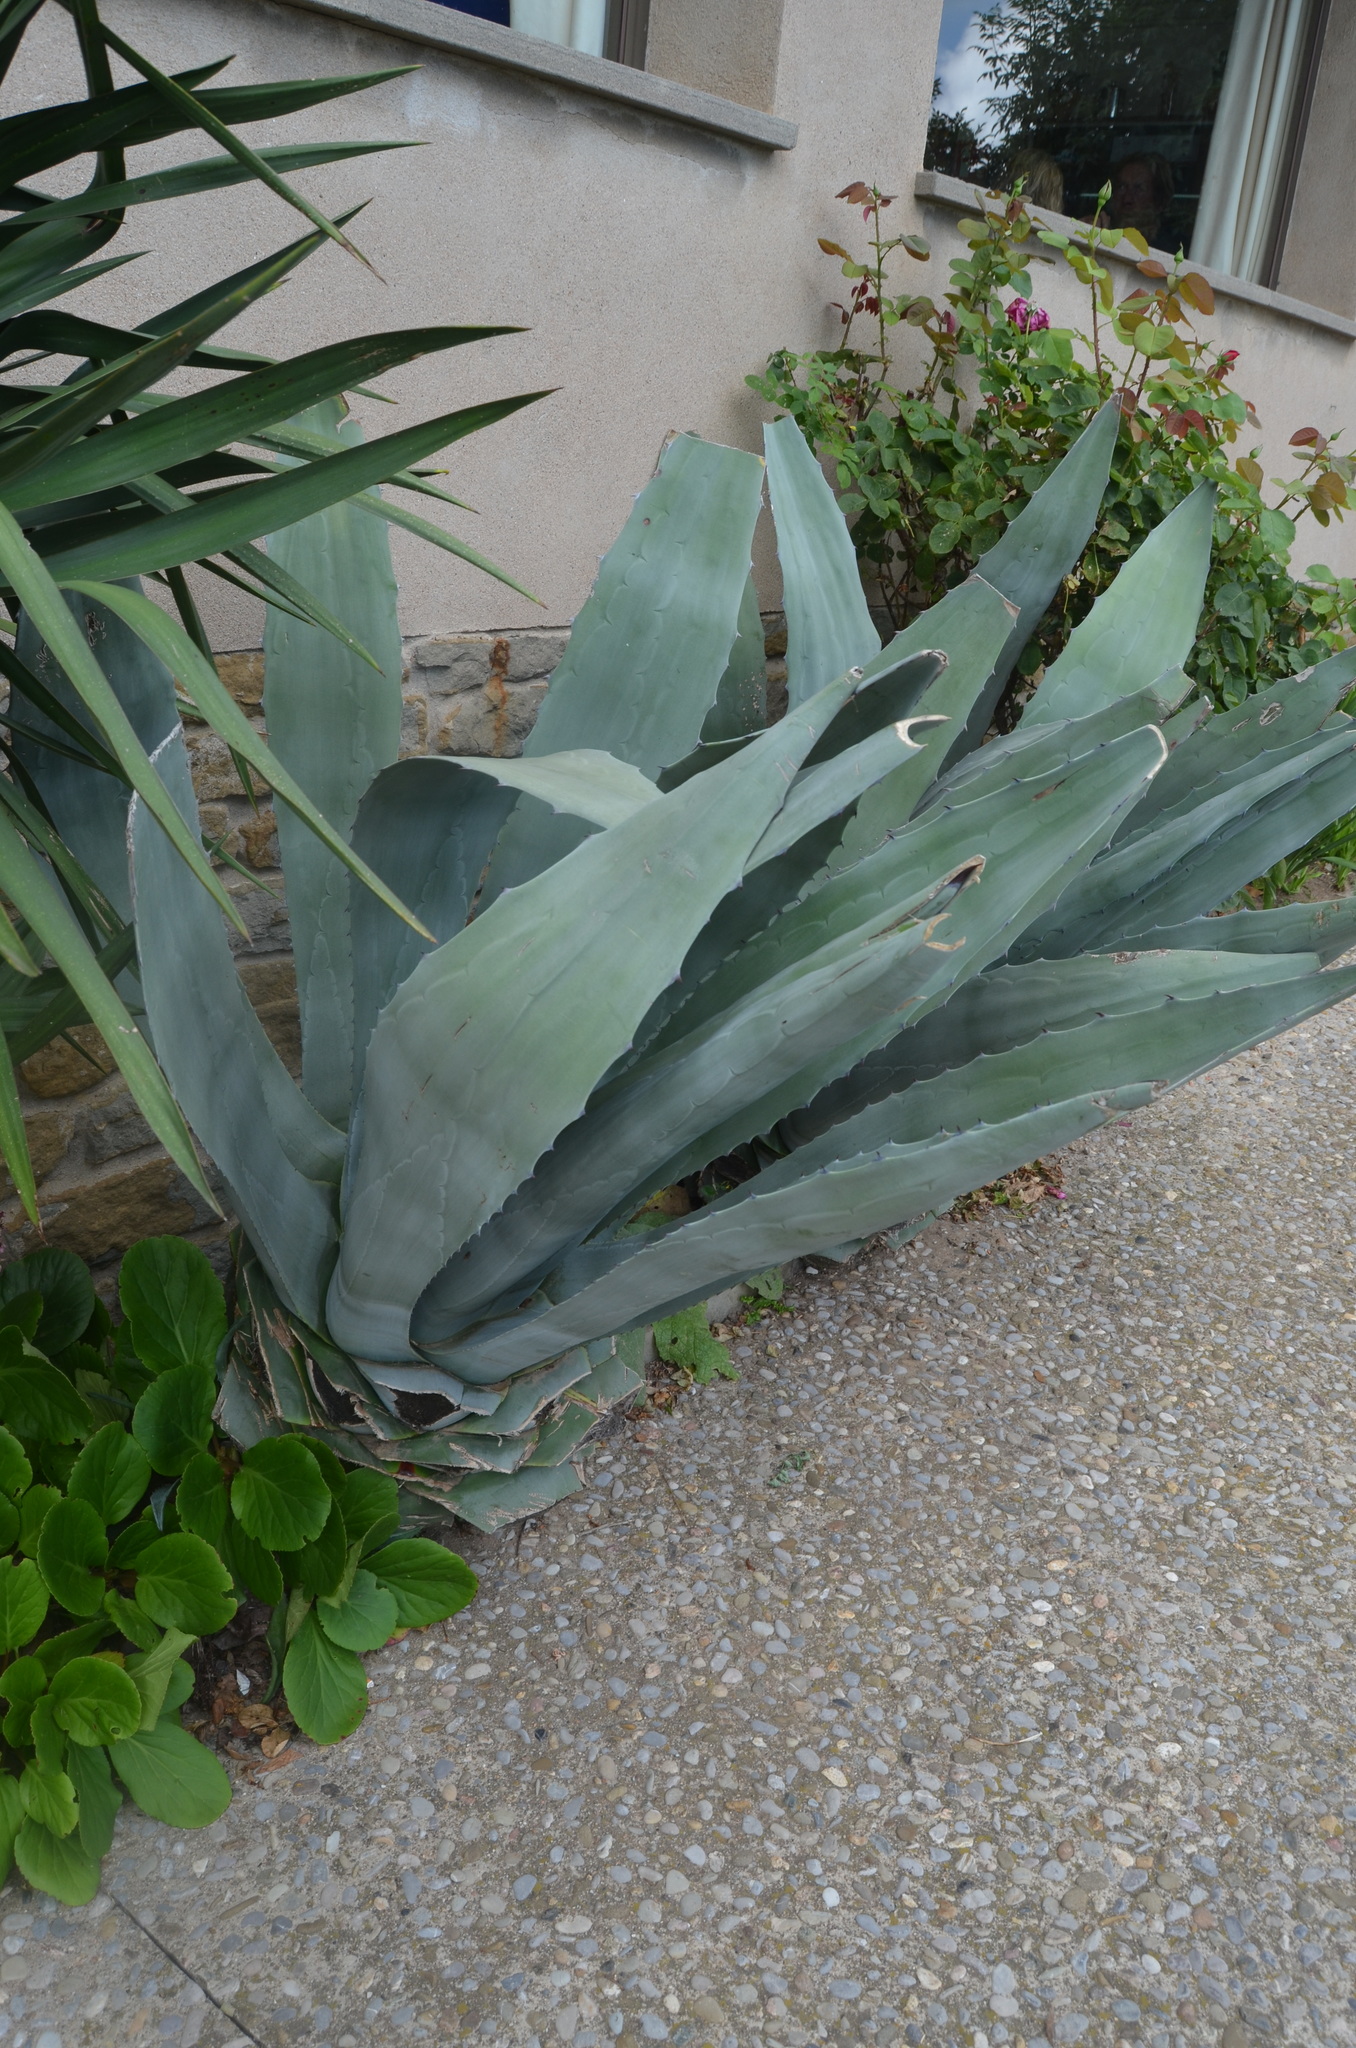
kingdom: Plantae
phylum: Tracheophyta
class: Liliopsida
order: Asparagales
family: Asparagaceae
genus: Agave
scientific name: Agave americana
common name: Centuryplant
